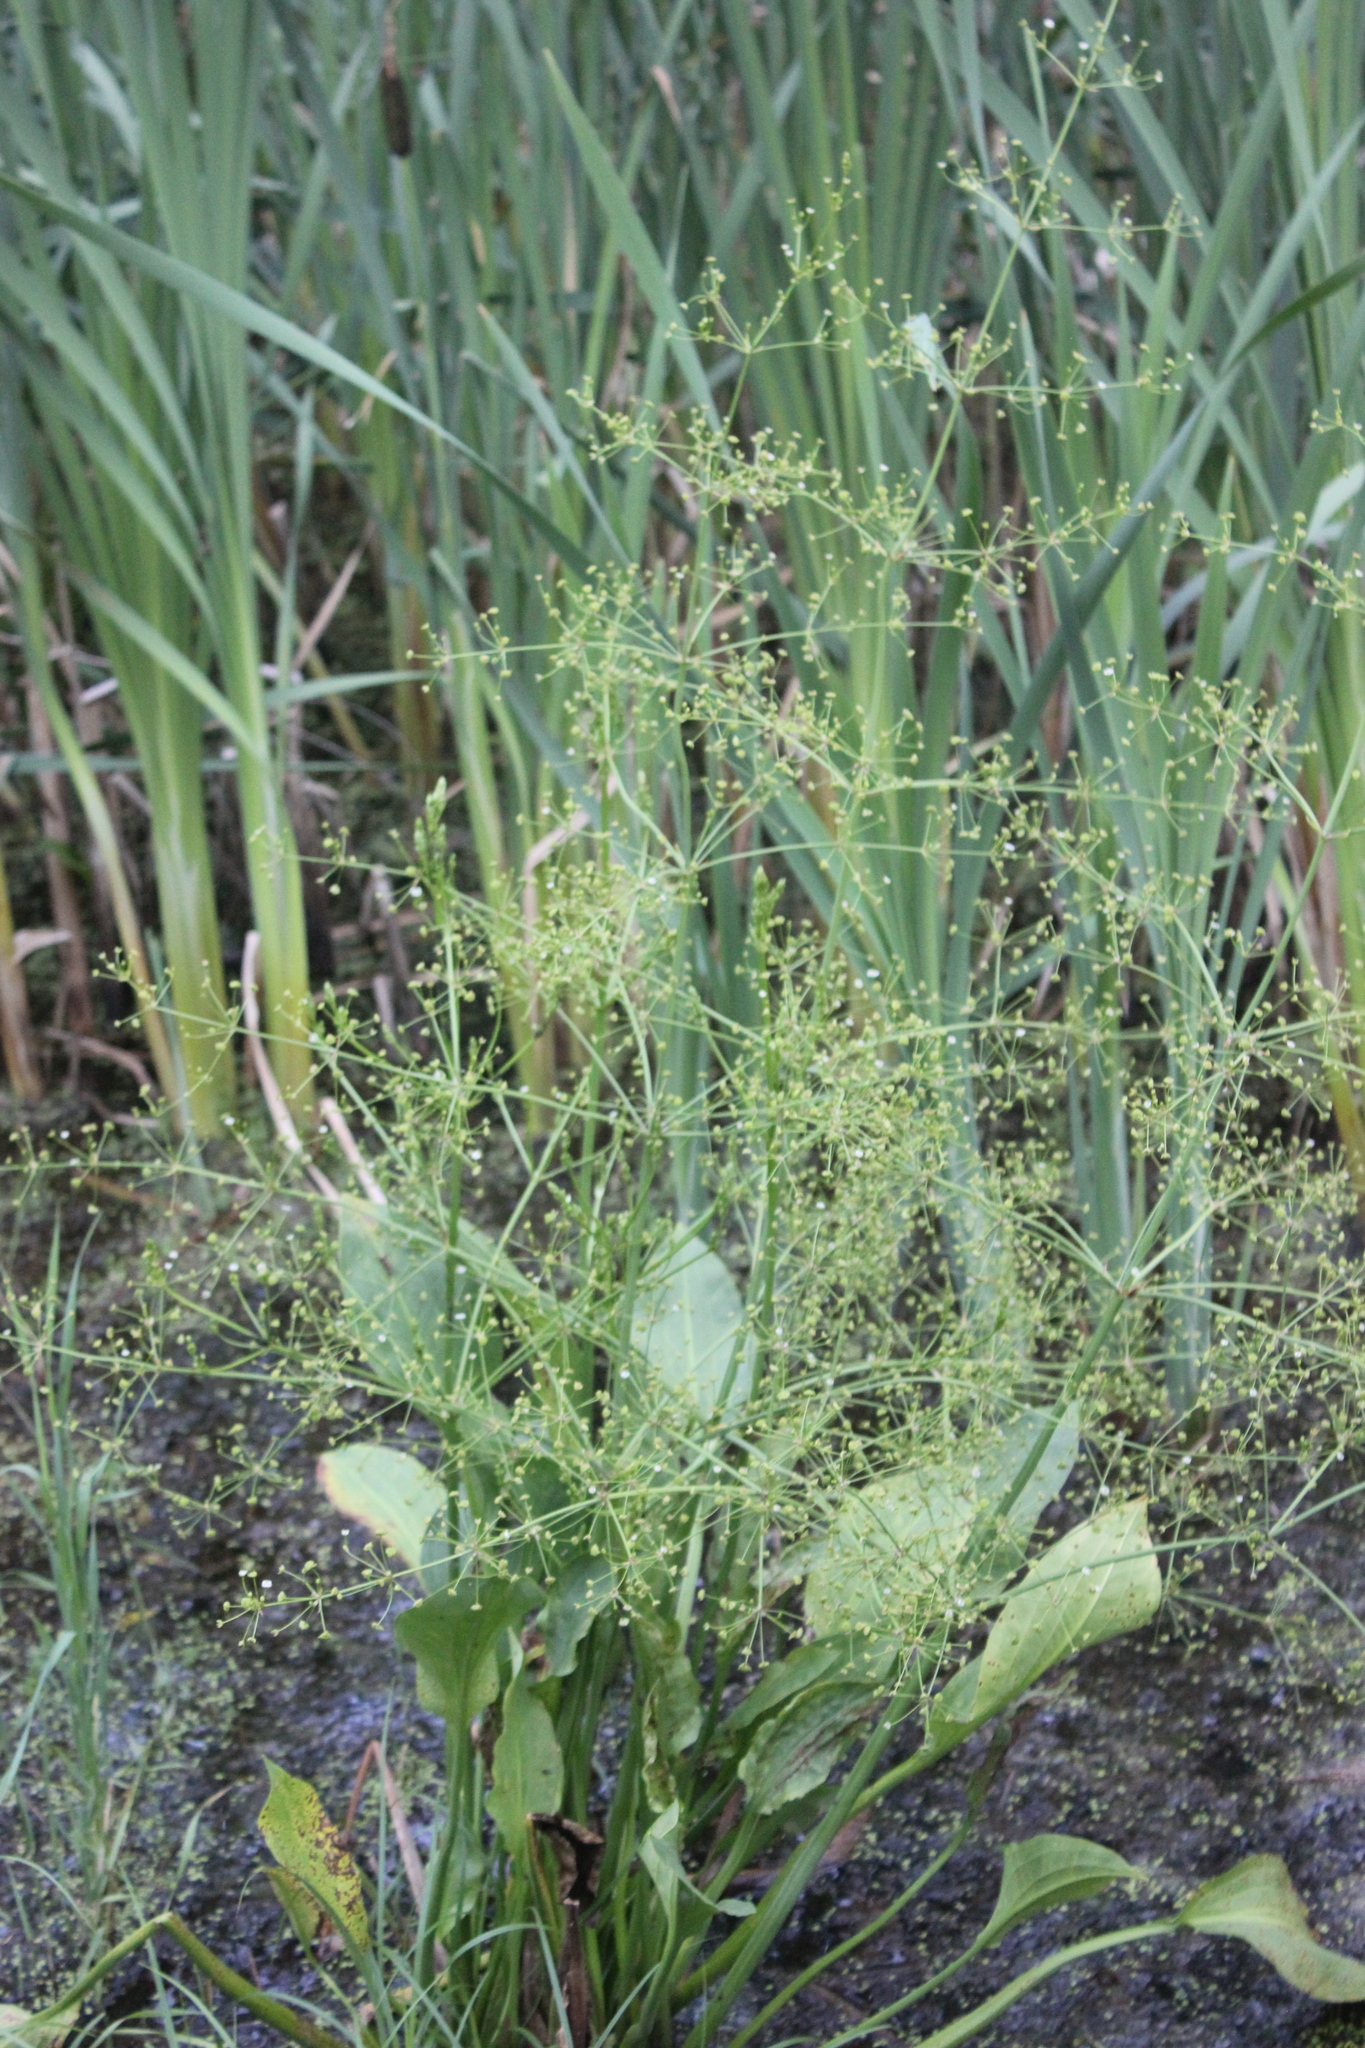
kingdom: Plantae
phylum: Tracheophyta
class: Liliopsida
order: Alismatales
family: Alismataceae
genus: Alisma
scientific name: Alisma plantago-aquatica
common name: Water-plantain
